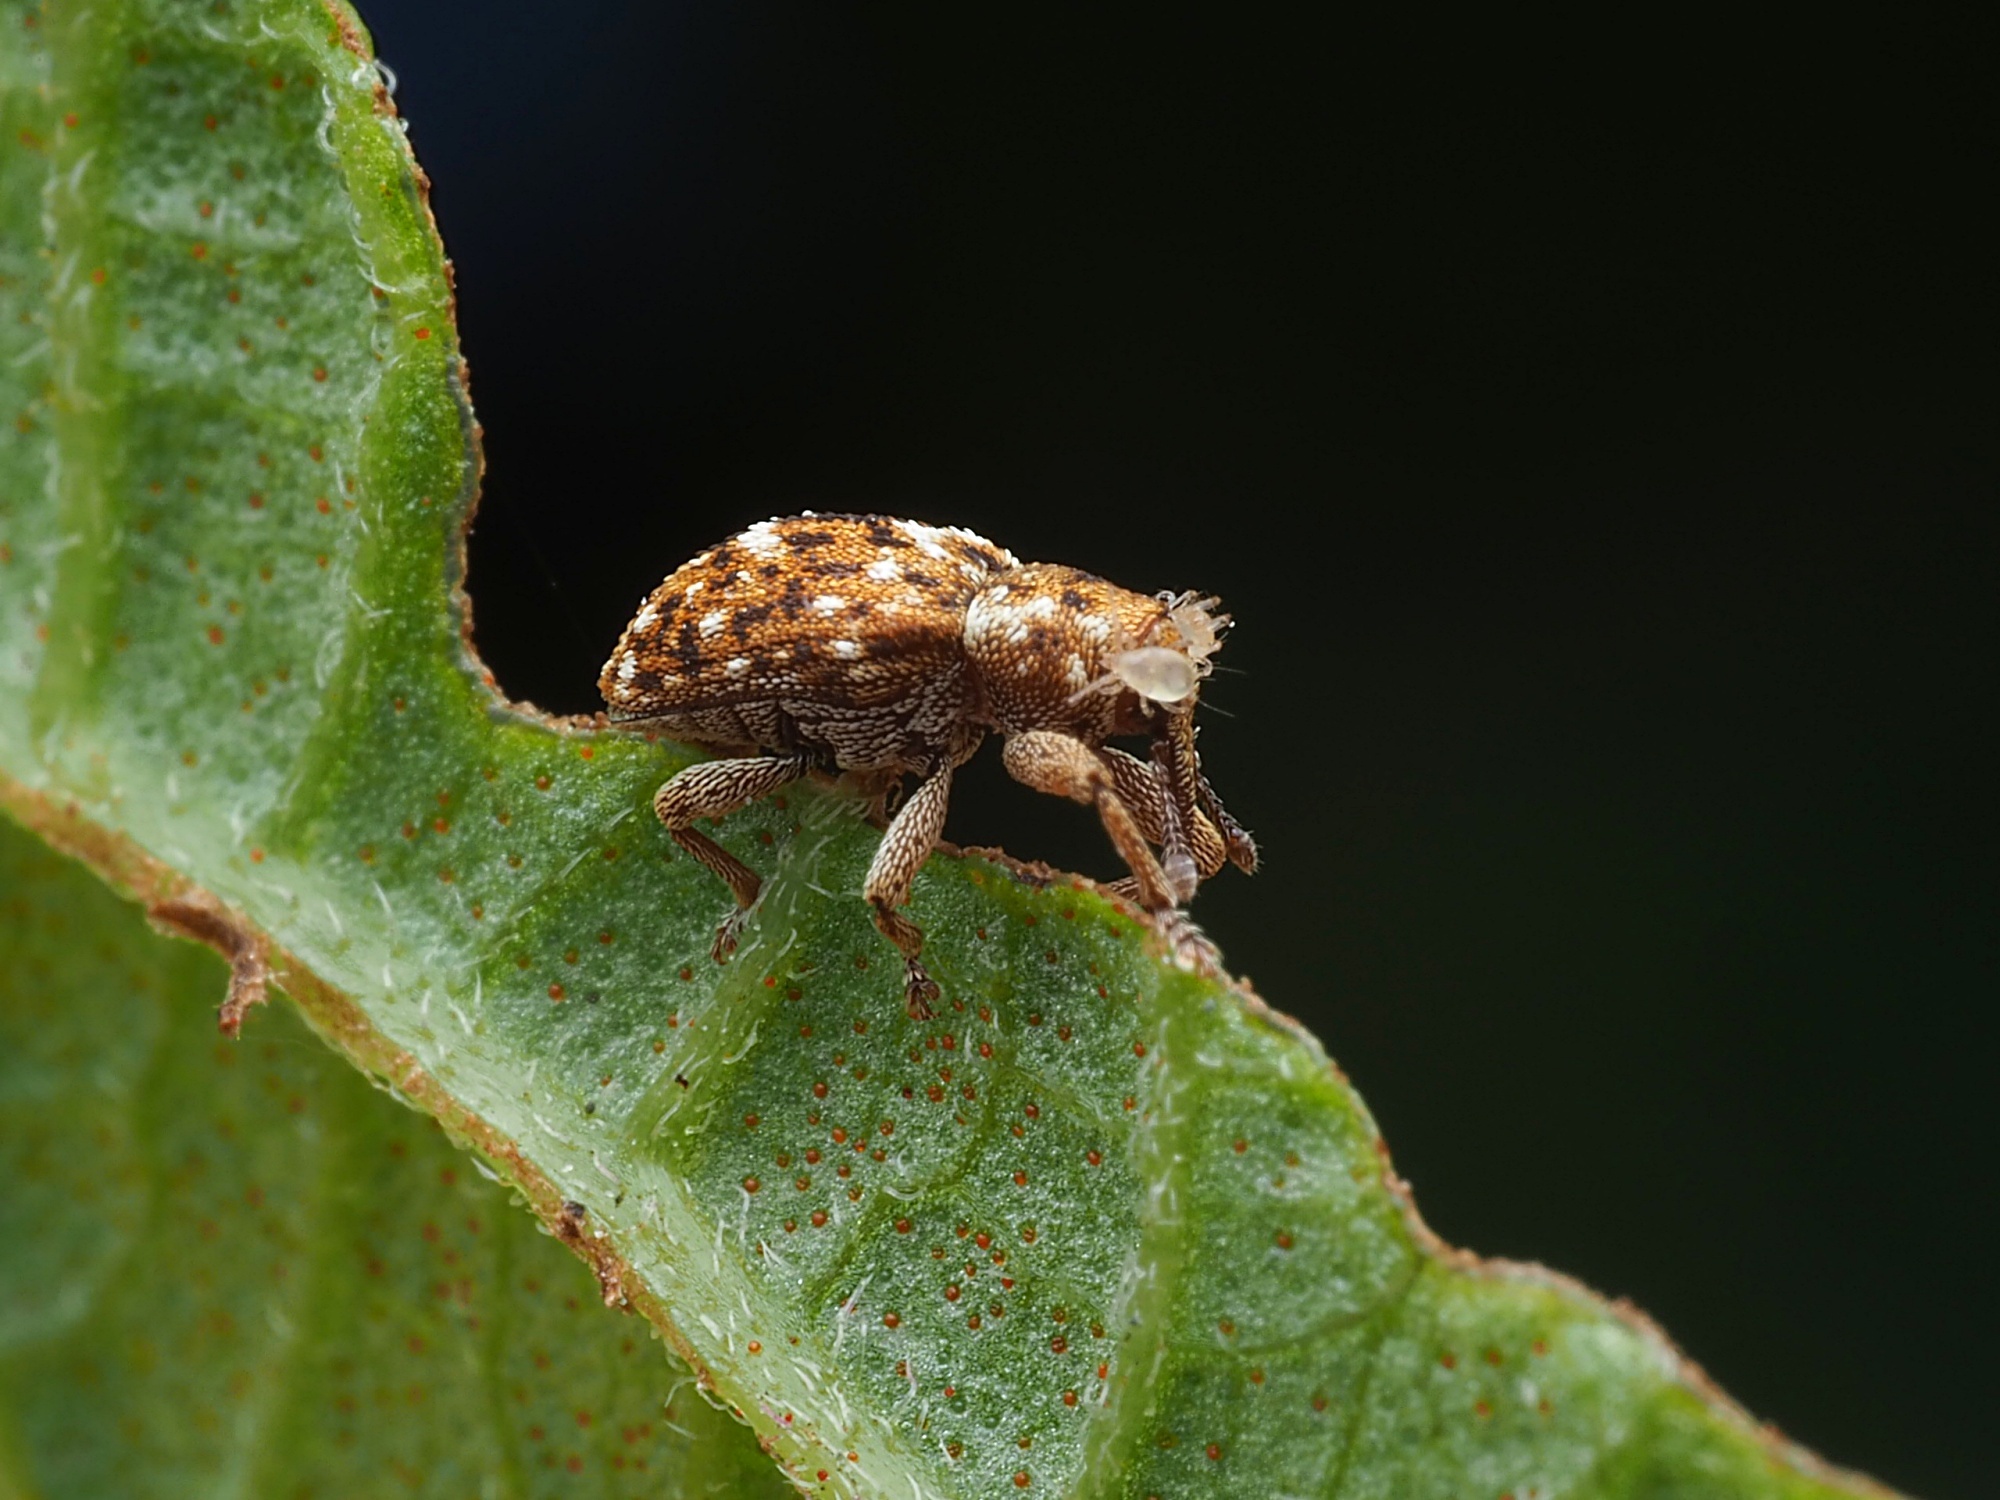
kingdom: Animalia
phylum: Arthropoda
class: Insecta
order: Coleoptera
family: Curculionidae
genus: Storeus
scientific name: Storeus albosignatus
